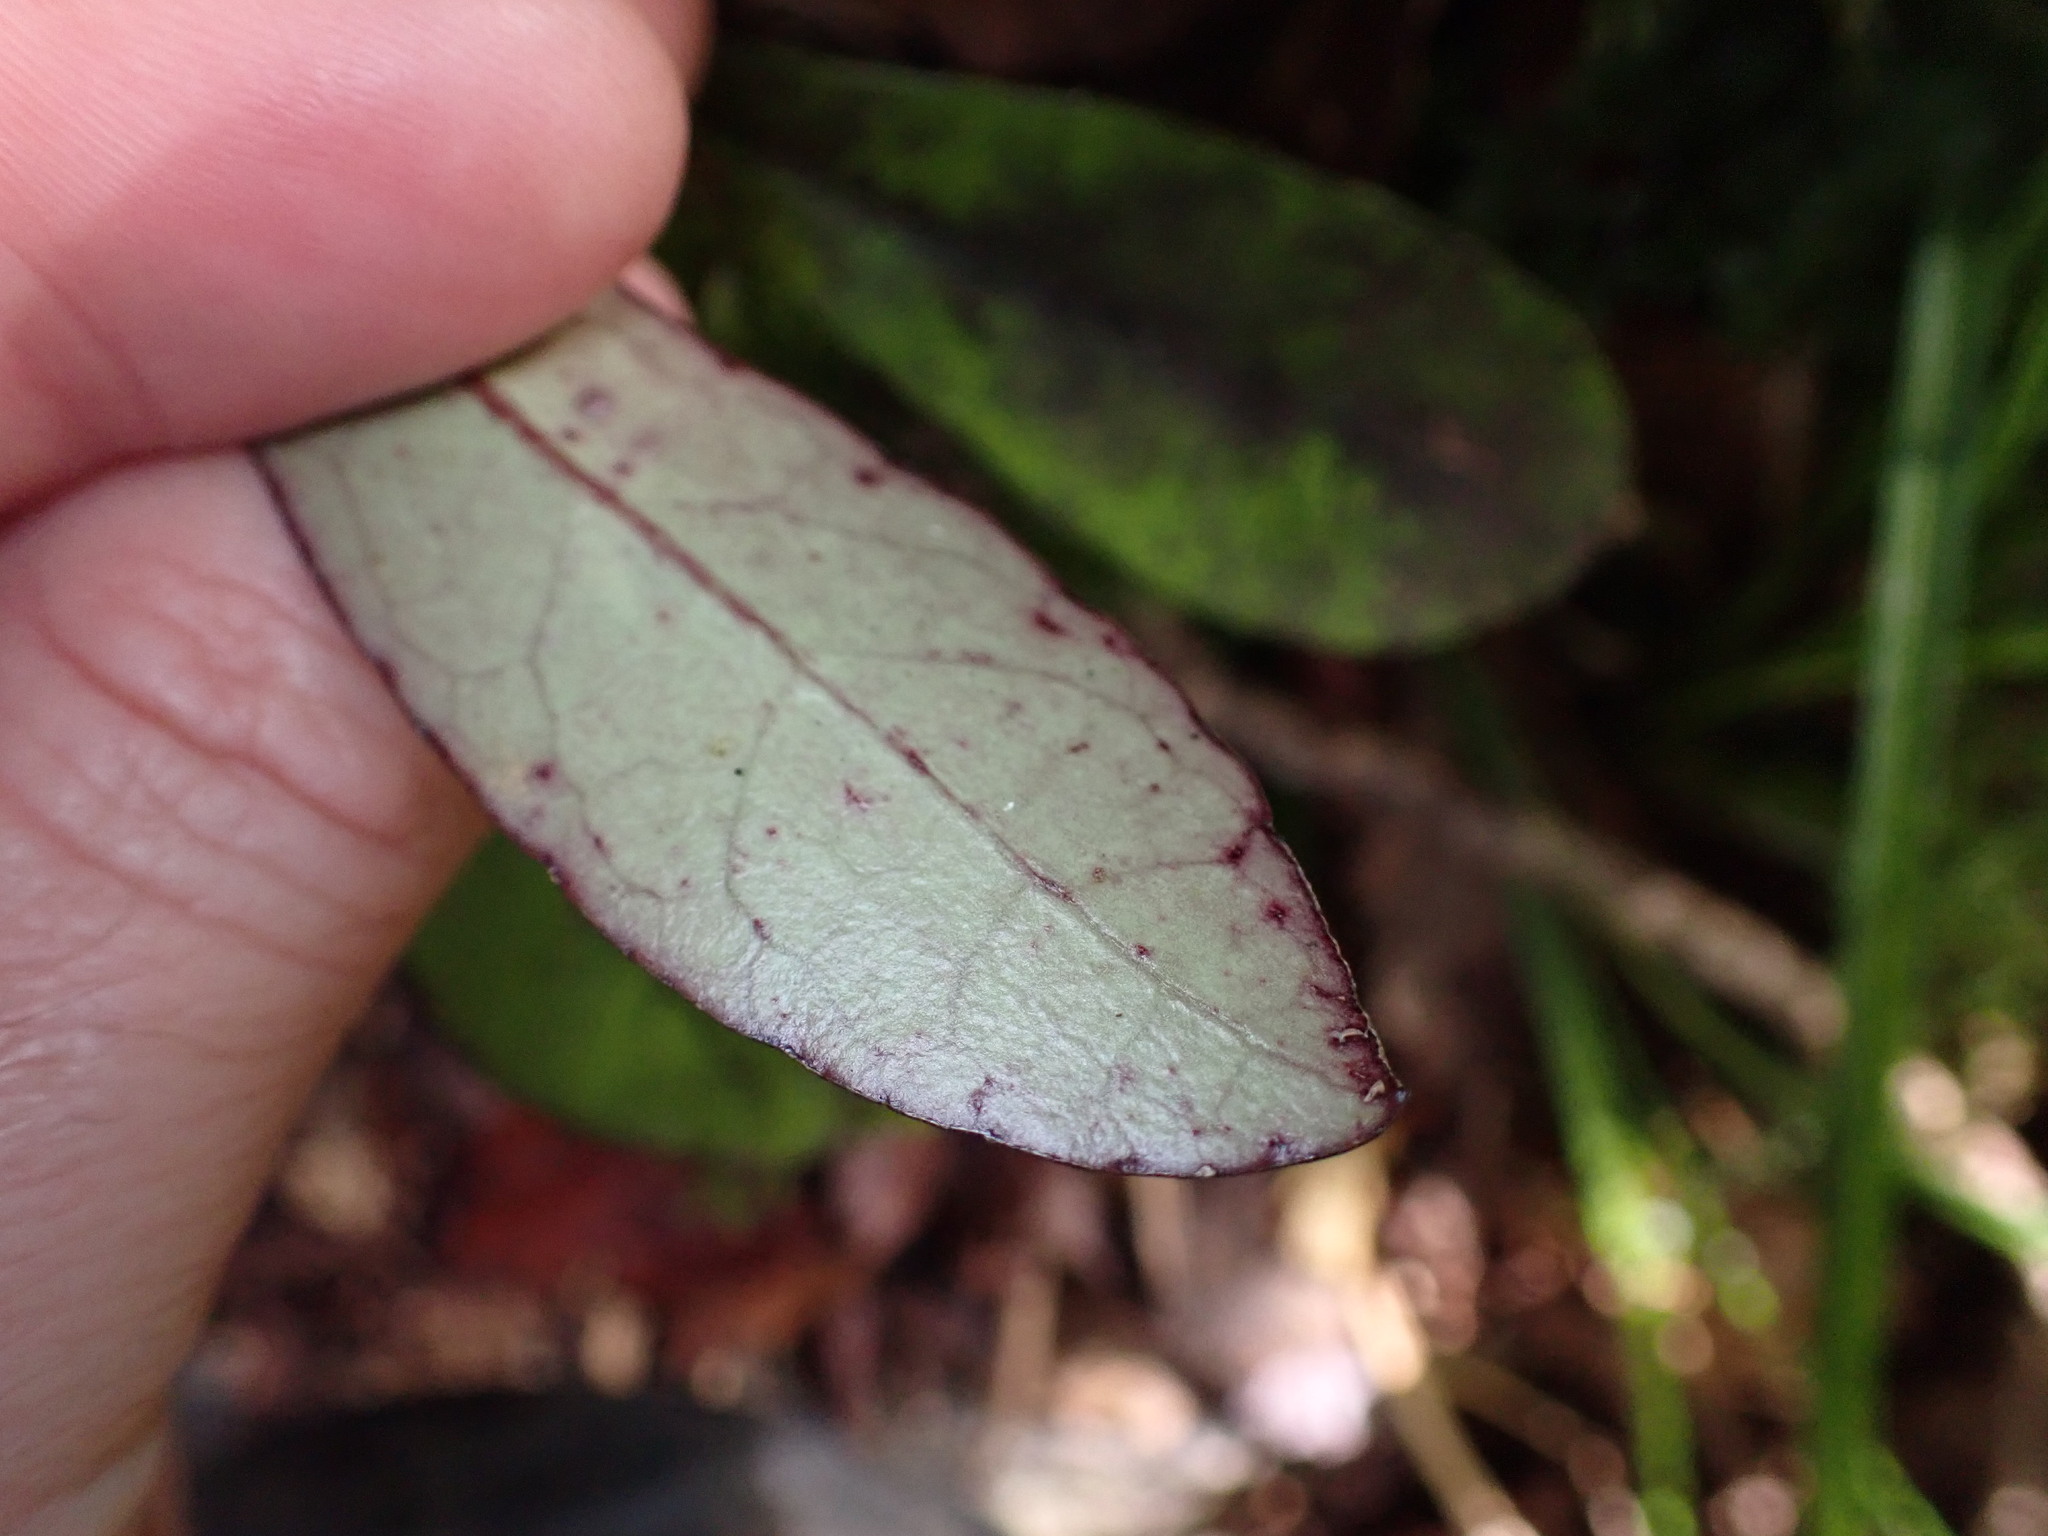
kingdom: Plantae
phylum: Tracheophyta
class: Magnoliopsida
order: Asterales
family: Alseuosmiaceae
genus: Alseuosmia
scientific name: Alseuosmia pusilla
